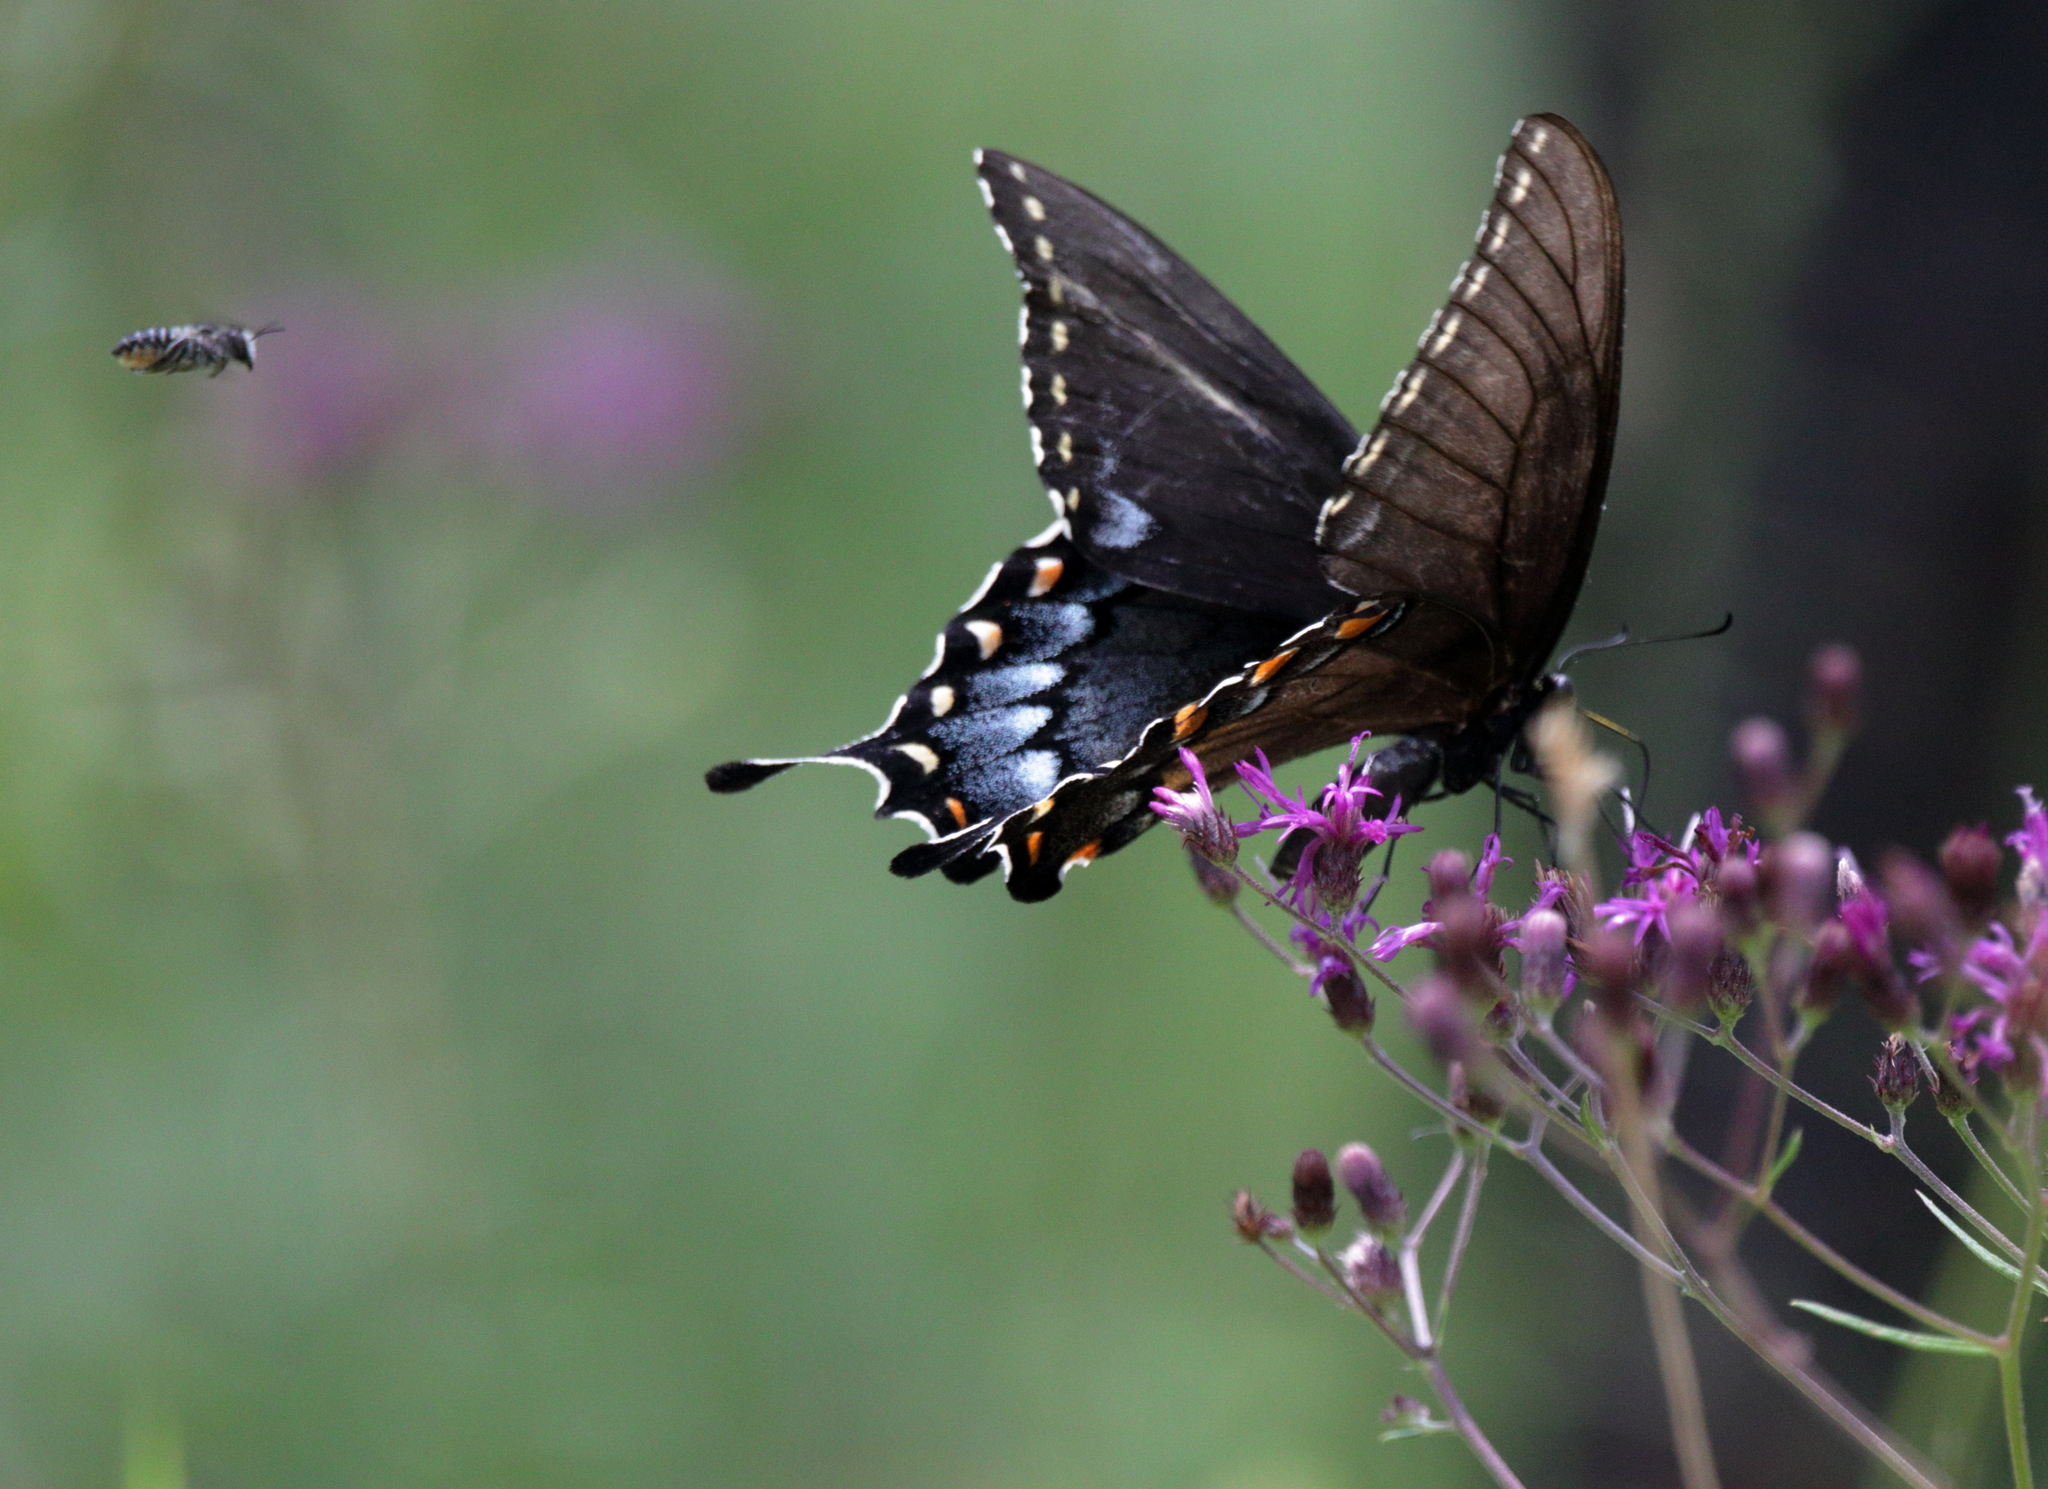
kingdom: Animalia
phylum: Arthropoda
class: Insecta
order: Lepidoptera
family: Papilionidae
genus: Papilio
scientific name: Papilio glaucus
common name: Tiger swallowtail
